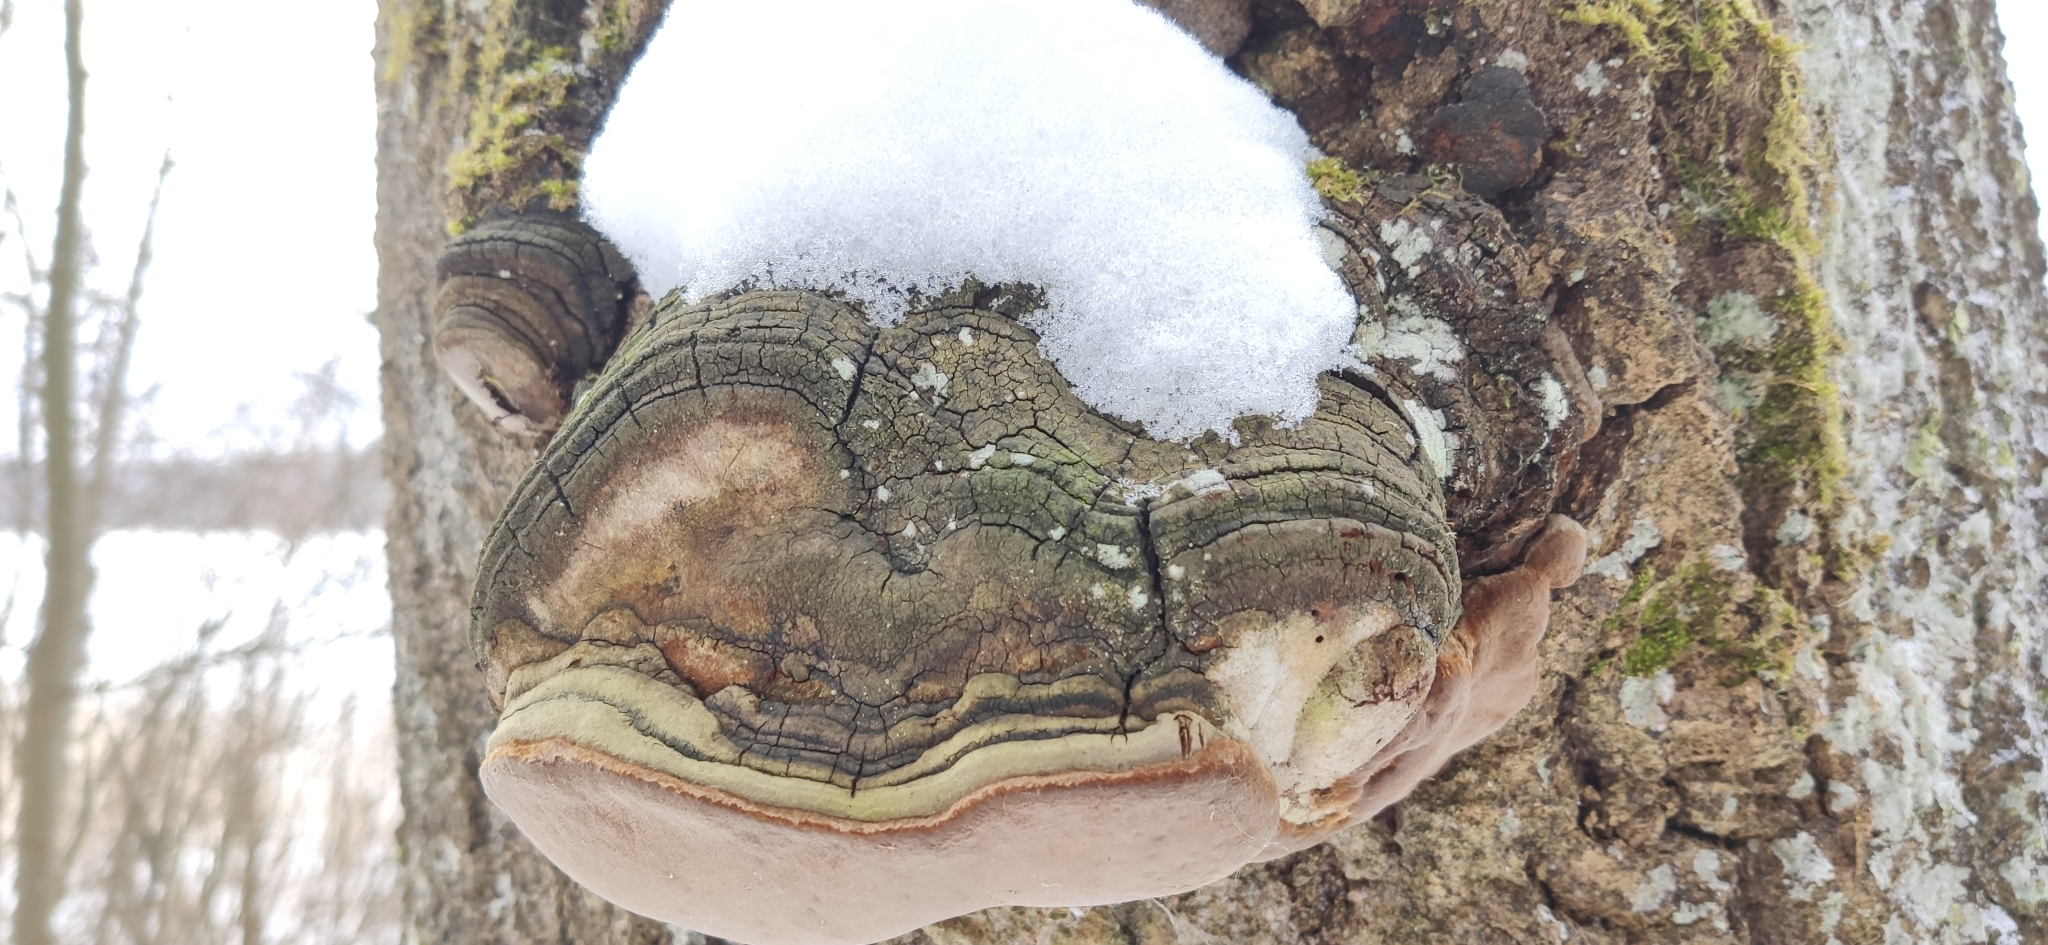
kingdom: Fungi
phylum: Basidiomycota
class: Agaricomycetes
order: Hymenochaetales
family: Hymenochaetaceae
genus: Phellinus
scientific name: Phellinus tremulae
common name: Aspen bracket
